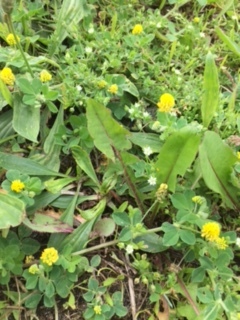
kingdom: Plantae
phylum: Tracheophyta
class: Magnoliopsida
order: Fabales
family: Fabaceae
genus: Medicago
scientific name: Medicago lupulina
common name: Black medick
